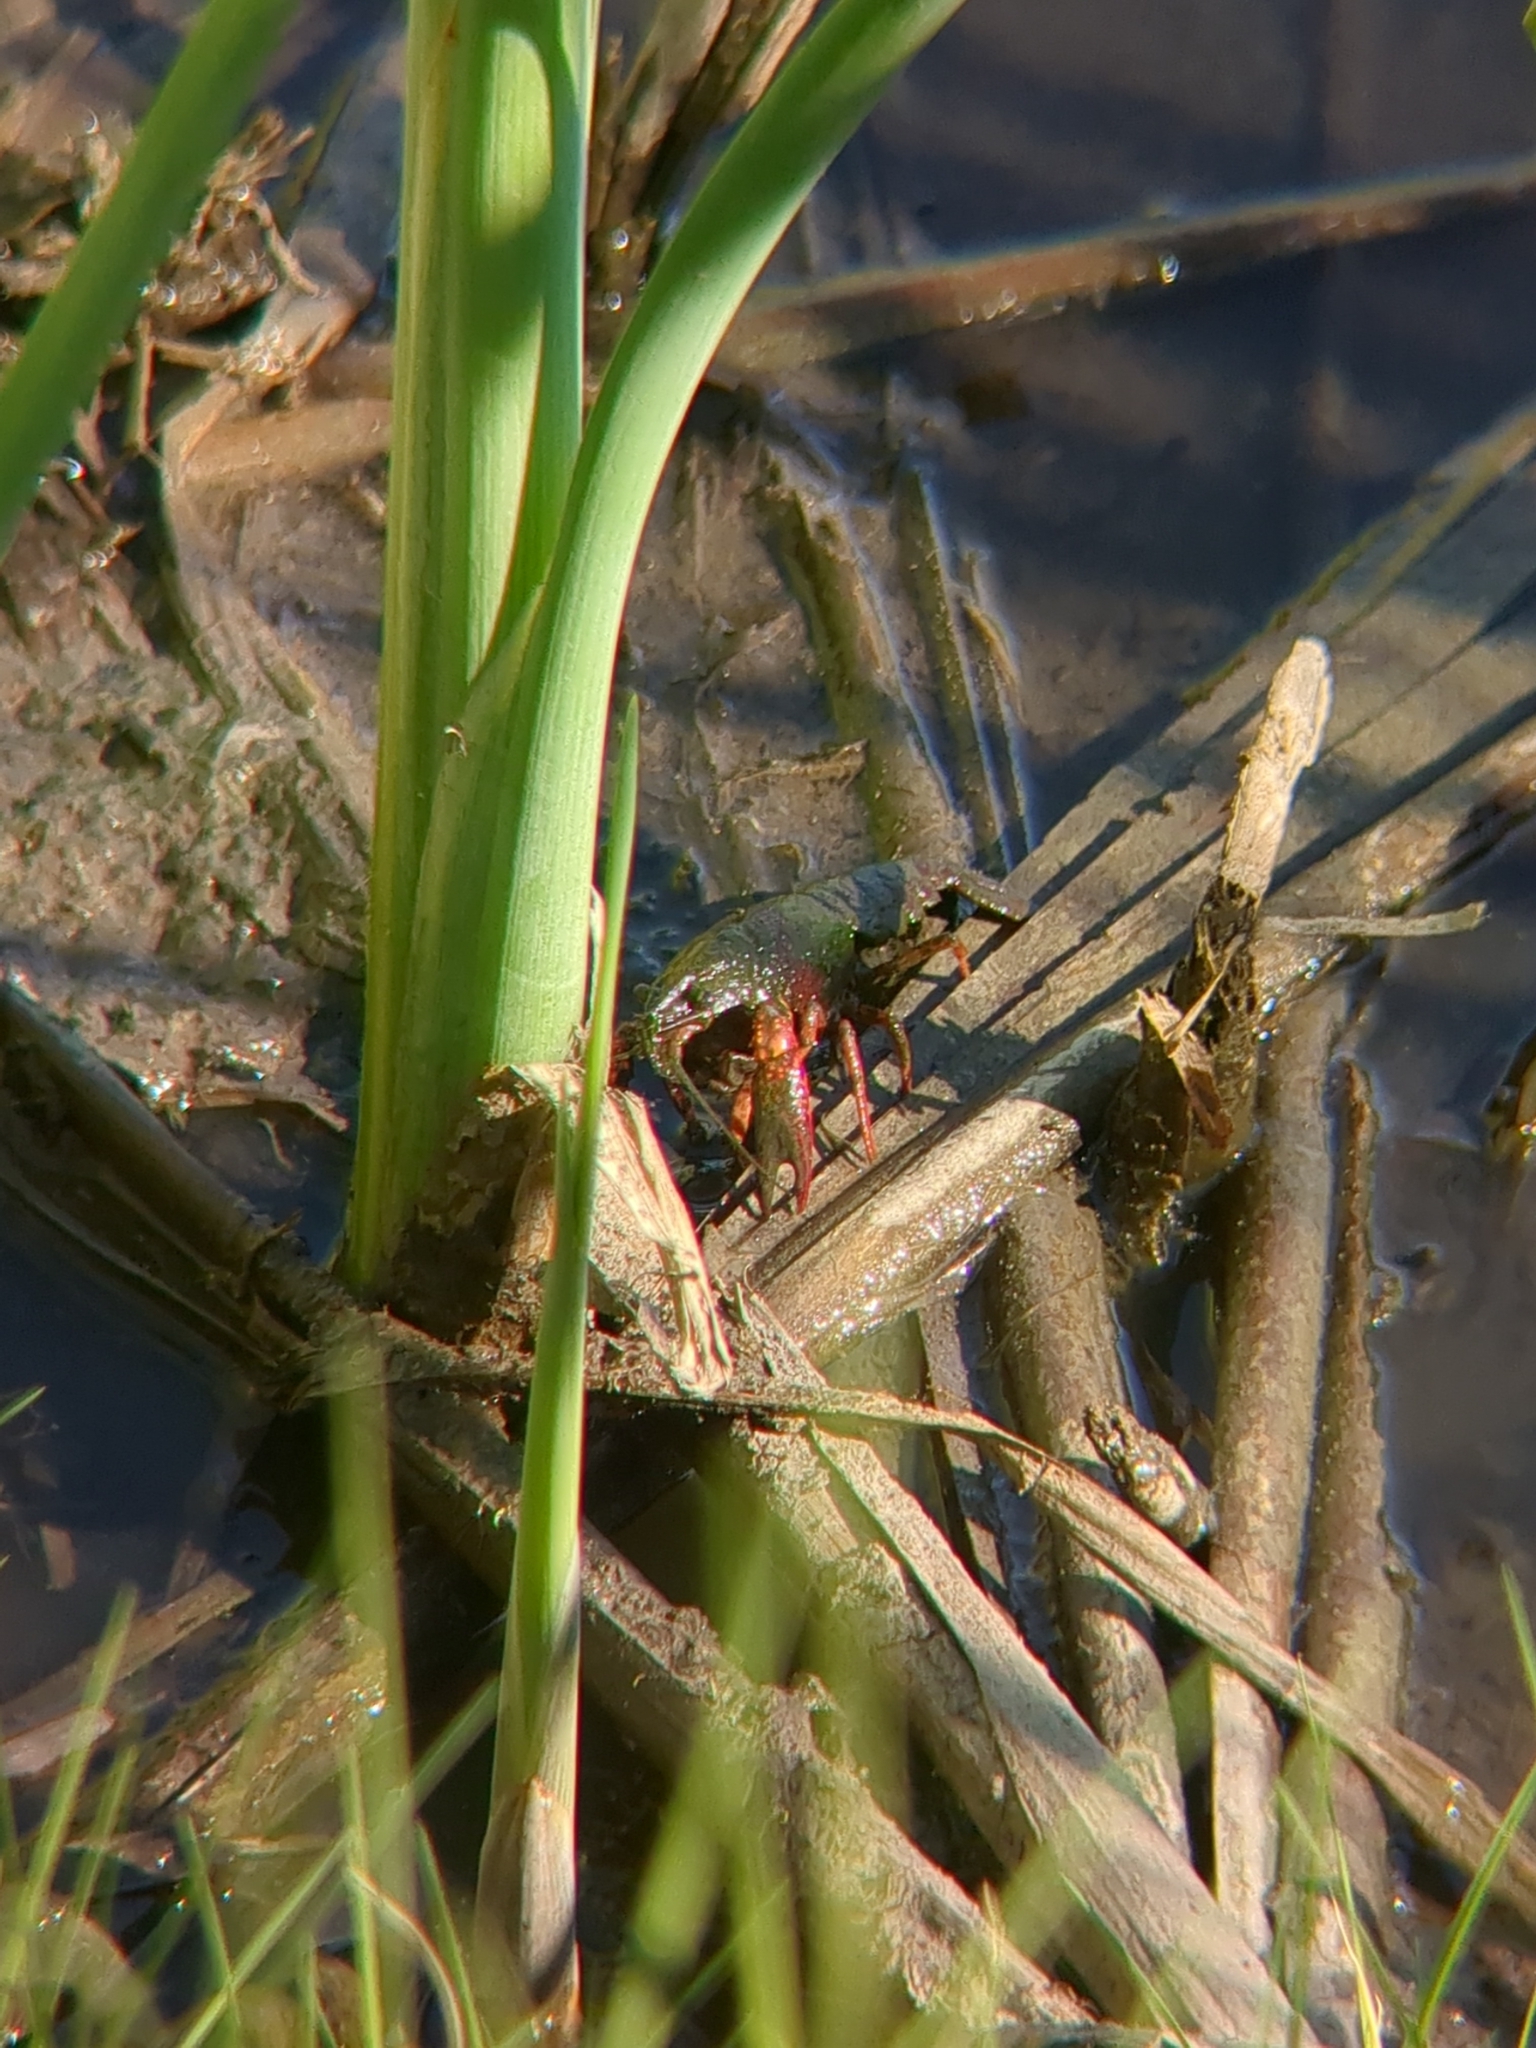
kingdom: Animalia
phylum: Arthropoda
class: Malacostraca
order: Decapoda
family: Cambaridae
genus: Procambarus
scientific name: Procambarus clarkii
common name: Red swamp crayfish
